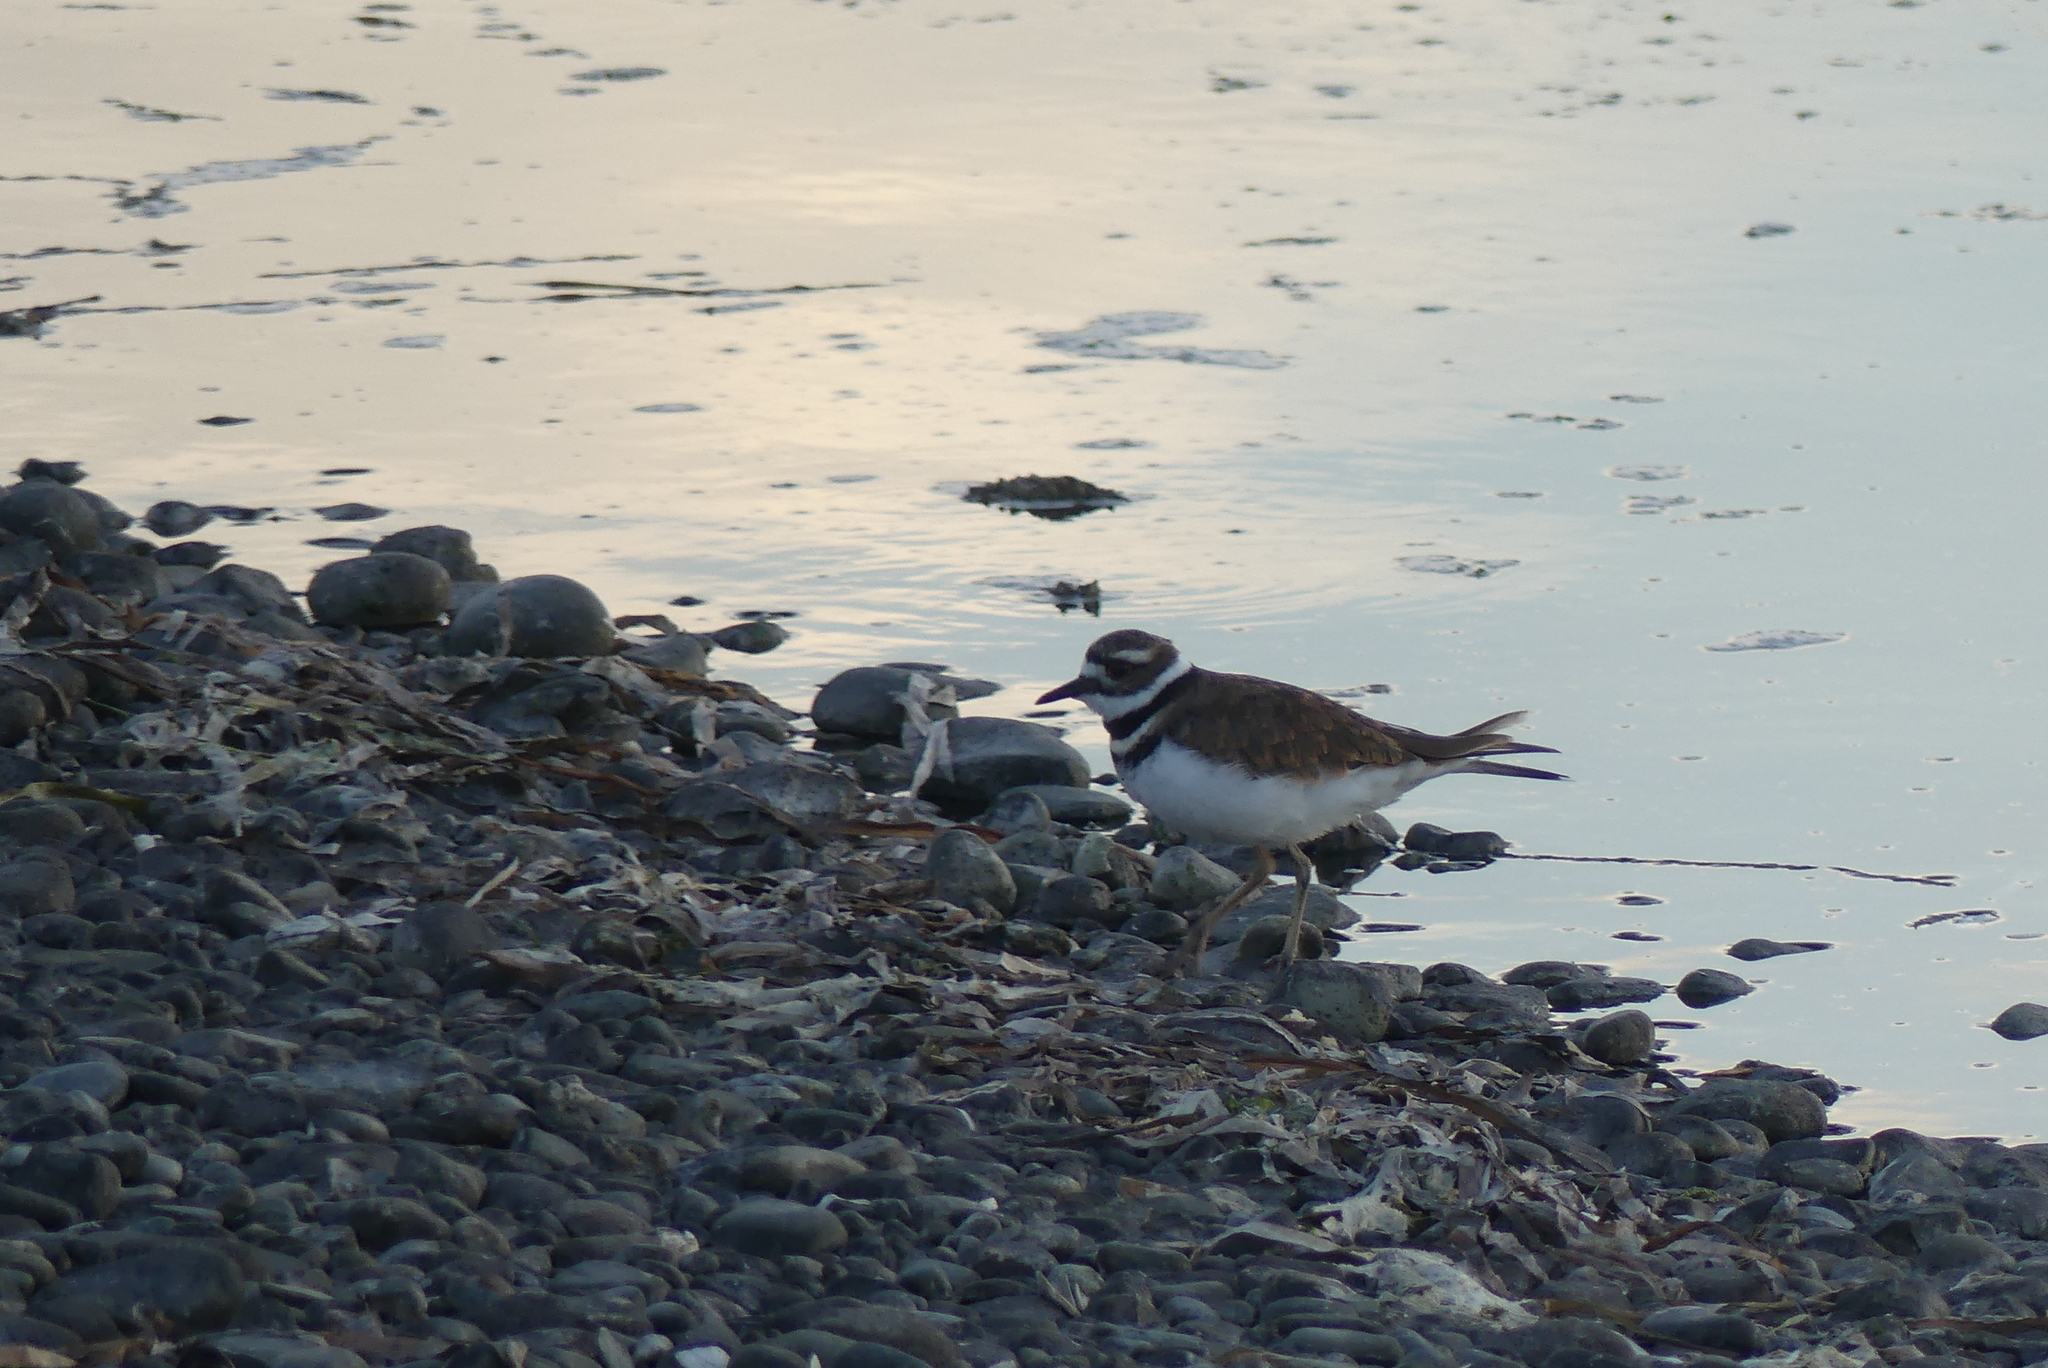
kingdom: Animalia
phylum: Chordata
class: Aves
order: Charadriiformes
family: Charadriidae
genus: Charadrius
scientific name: Charadrius vociferus
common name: Killdeer
